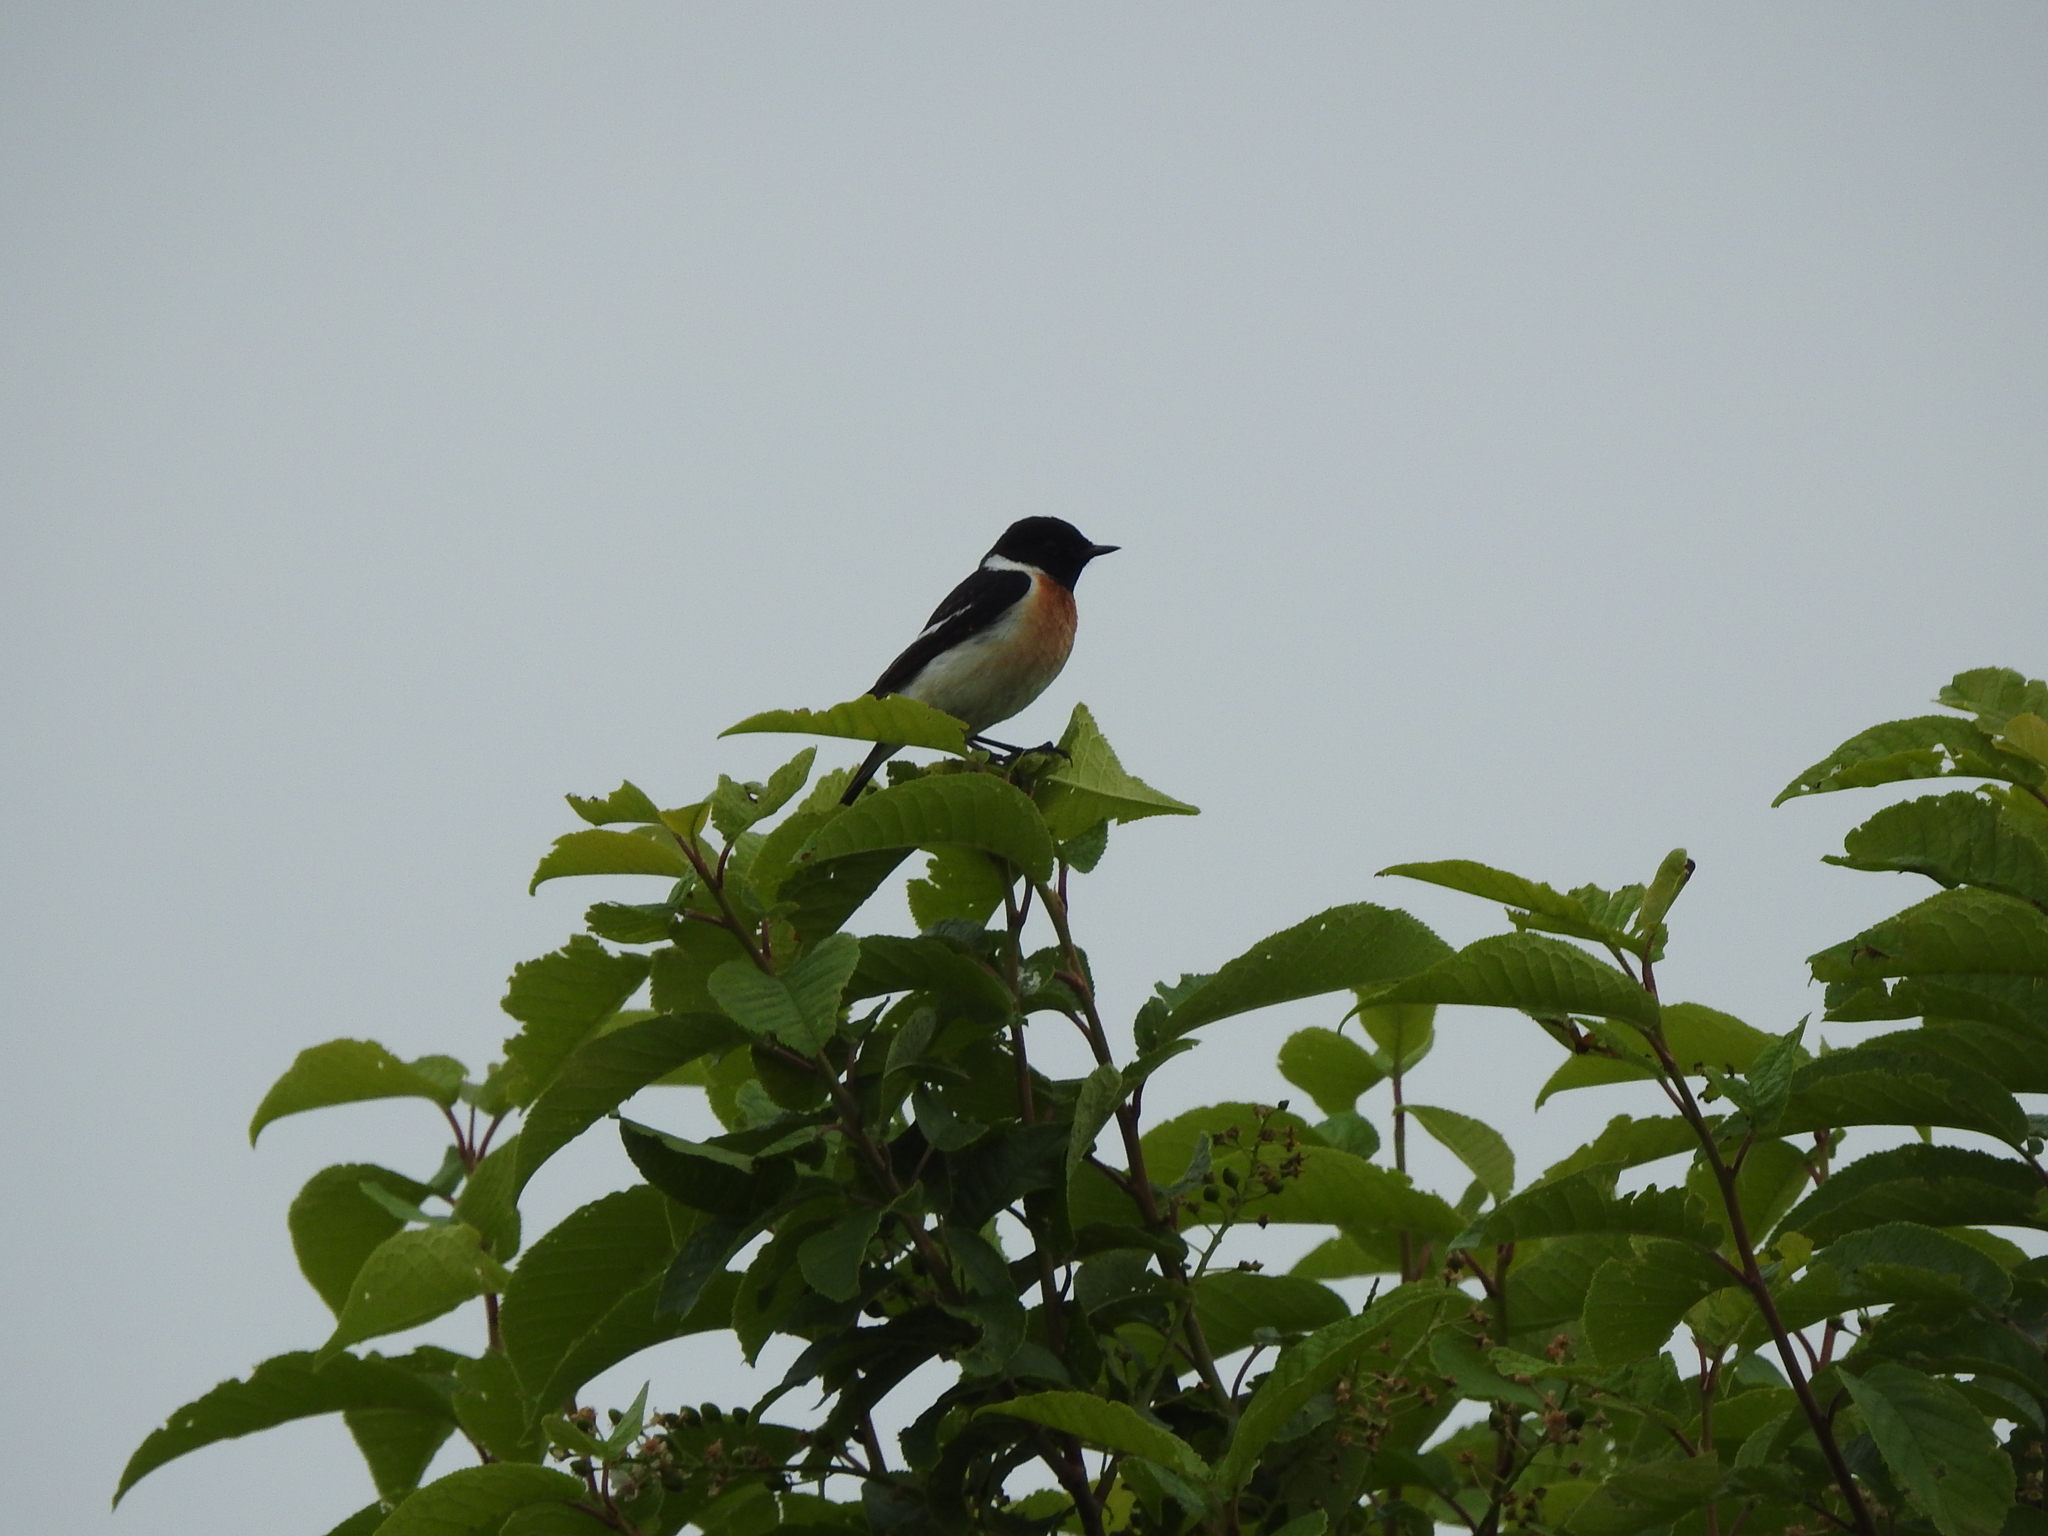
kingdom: Animalia
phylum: Chordata
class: Aves
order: Passeriformes
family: Muscicapidae
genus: Saxicola
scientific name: Saxicola maurus
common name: Siberian stonechat
